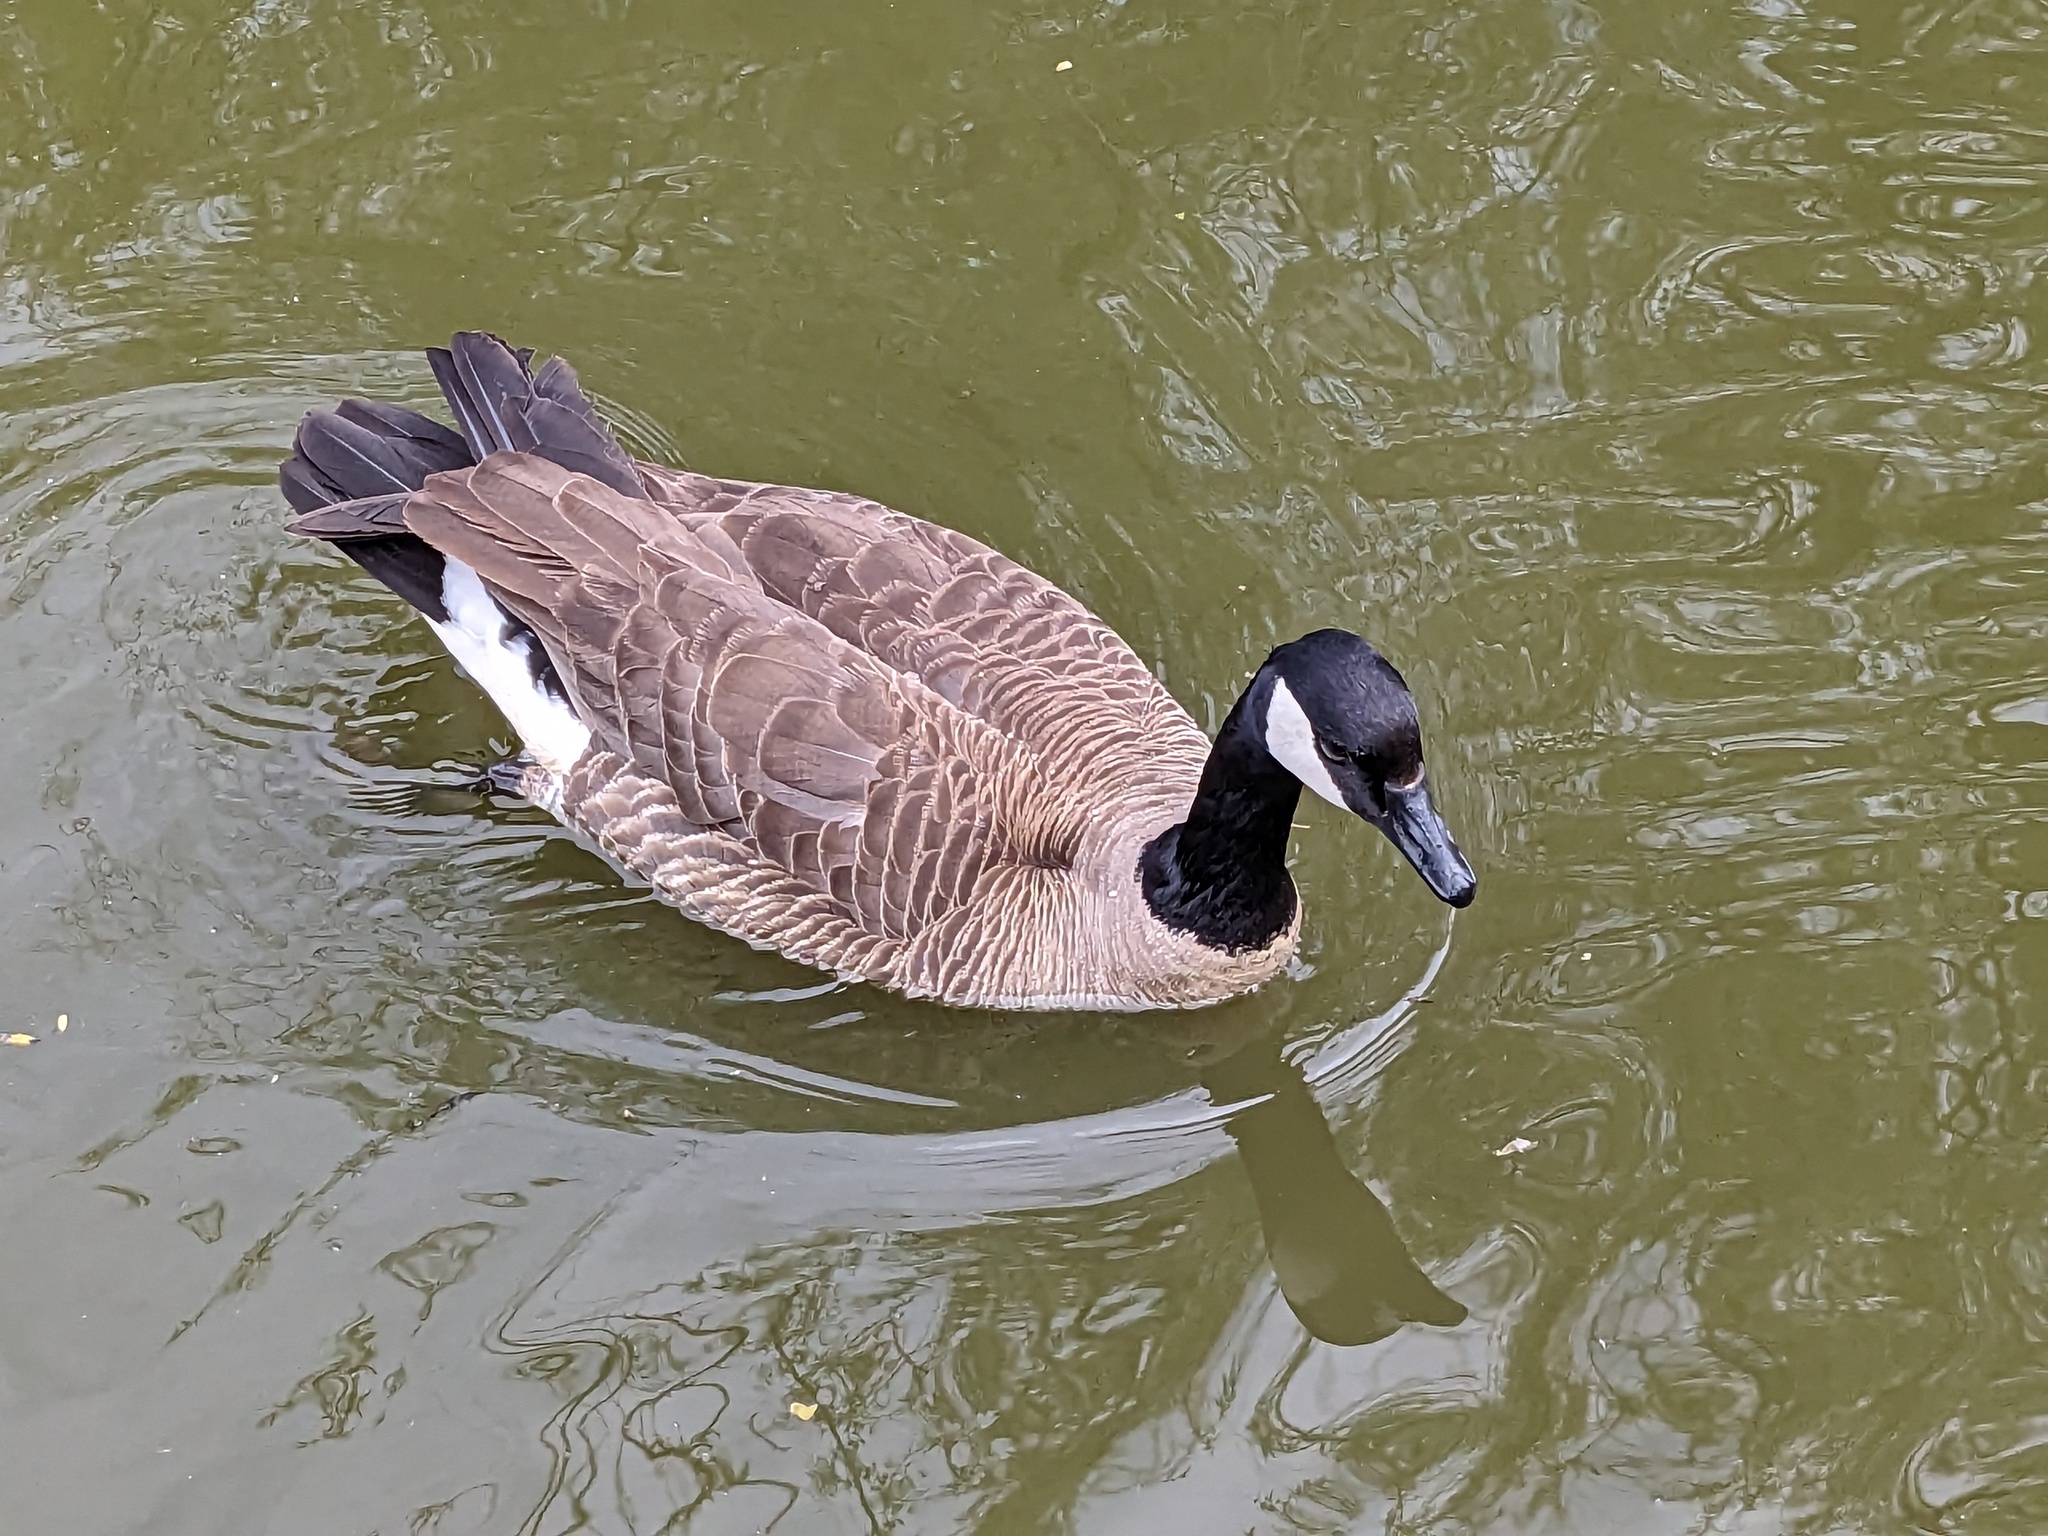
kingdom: Animalia
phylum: Chordata
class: Aves
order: Anseriformes
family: Anatidae
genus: Branta
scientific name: Branta canadensis
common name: Canada goose
